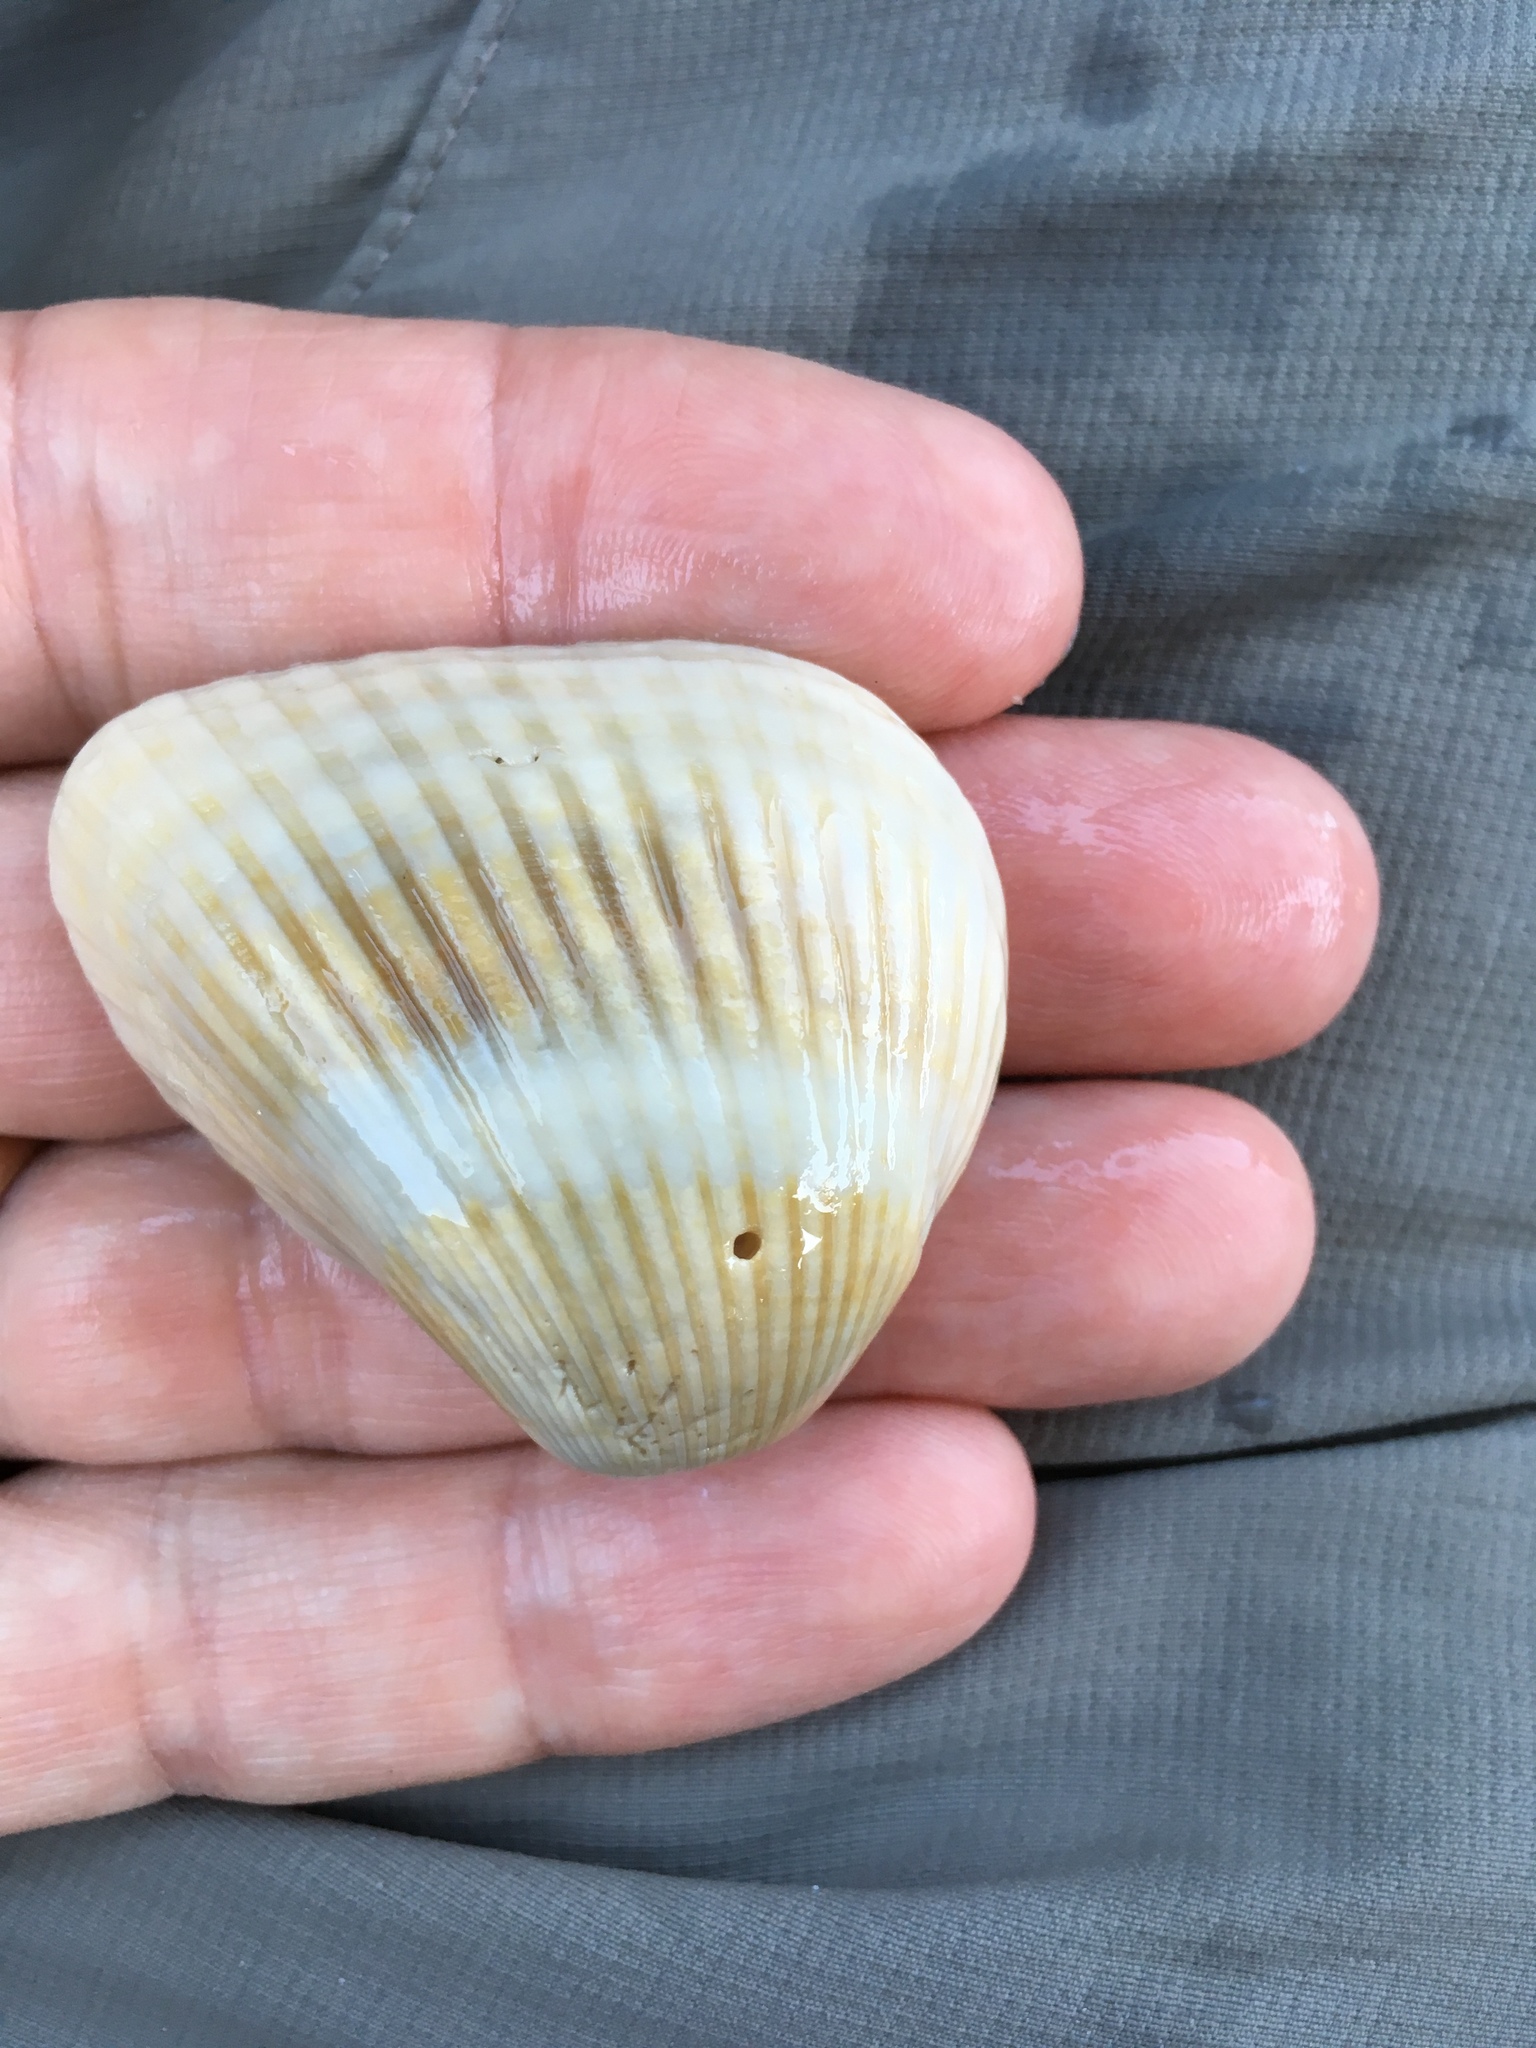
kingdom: Animalia
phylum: Mollusca
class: Bivalvia
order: Arcida
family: Noetiidae
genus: Noetia
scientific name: Noetia ponderosa
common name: Ponderous ark
